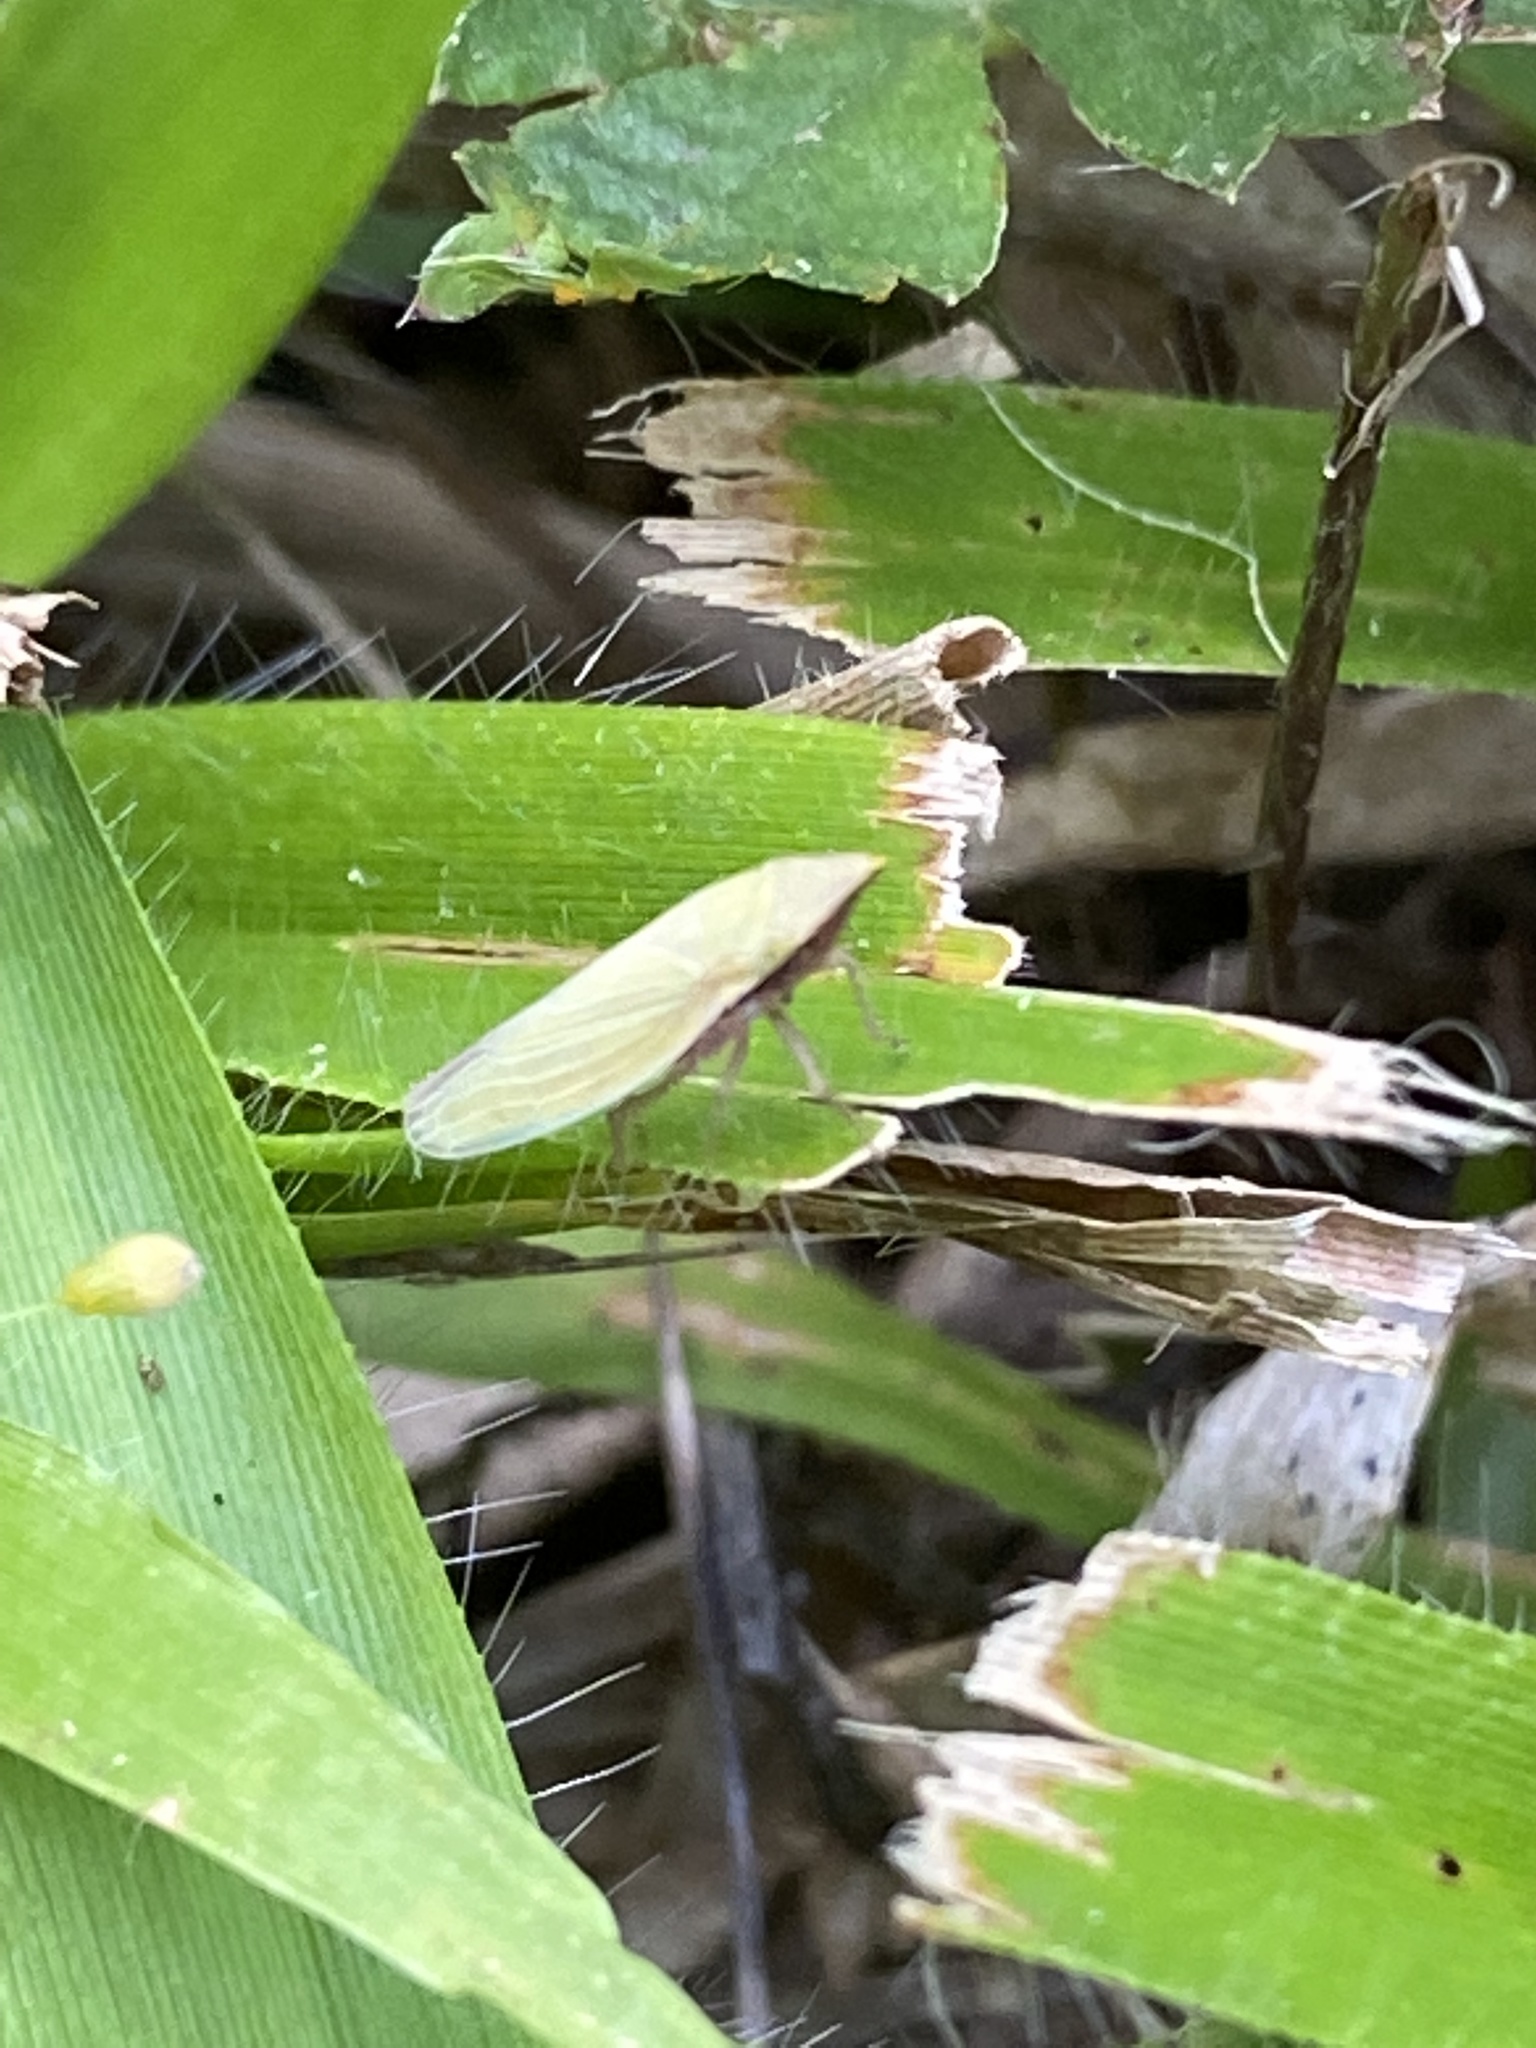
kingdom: Animalia
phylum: Arthropoda
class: Insecta
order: Hemiptera
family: Cicadellidae
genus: Draeculacephala
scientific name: Draeculacephala antica
